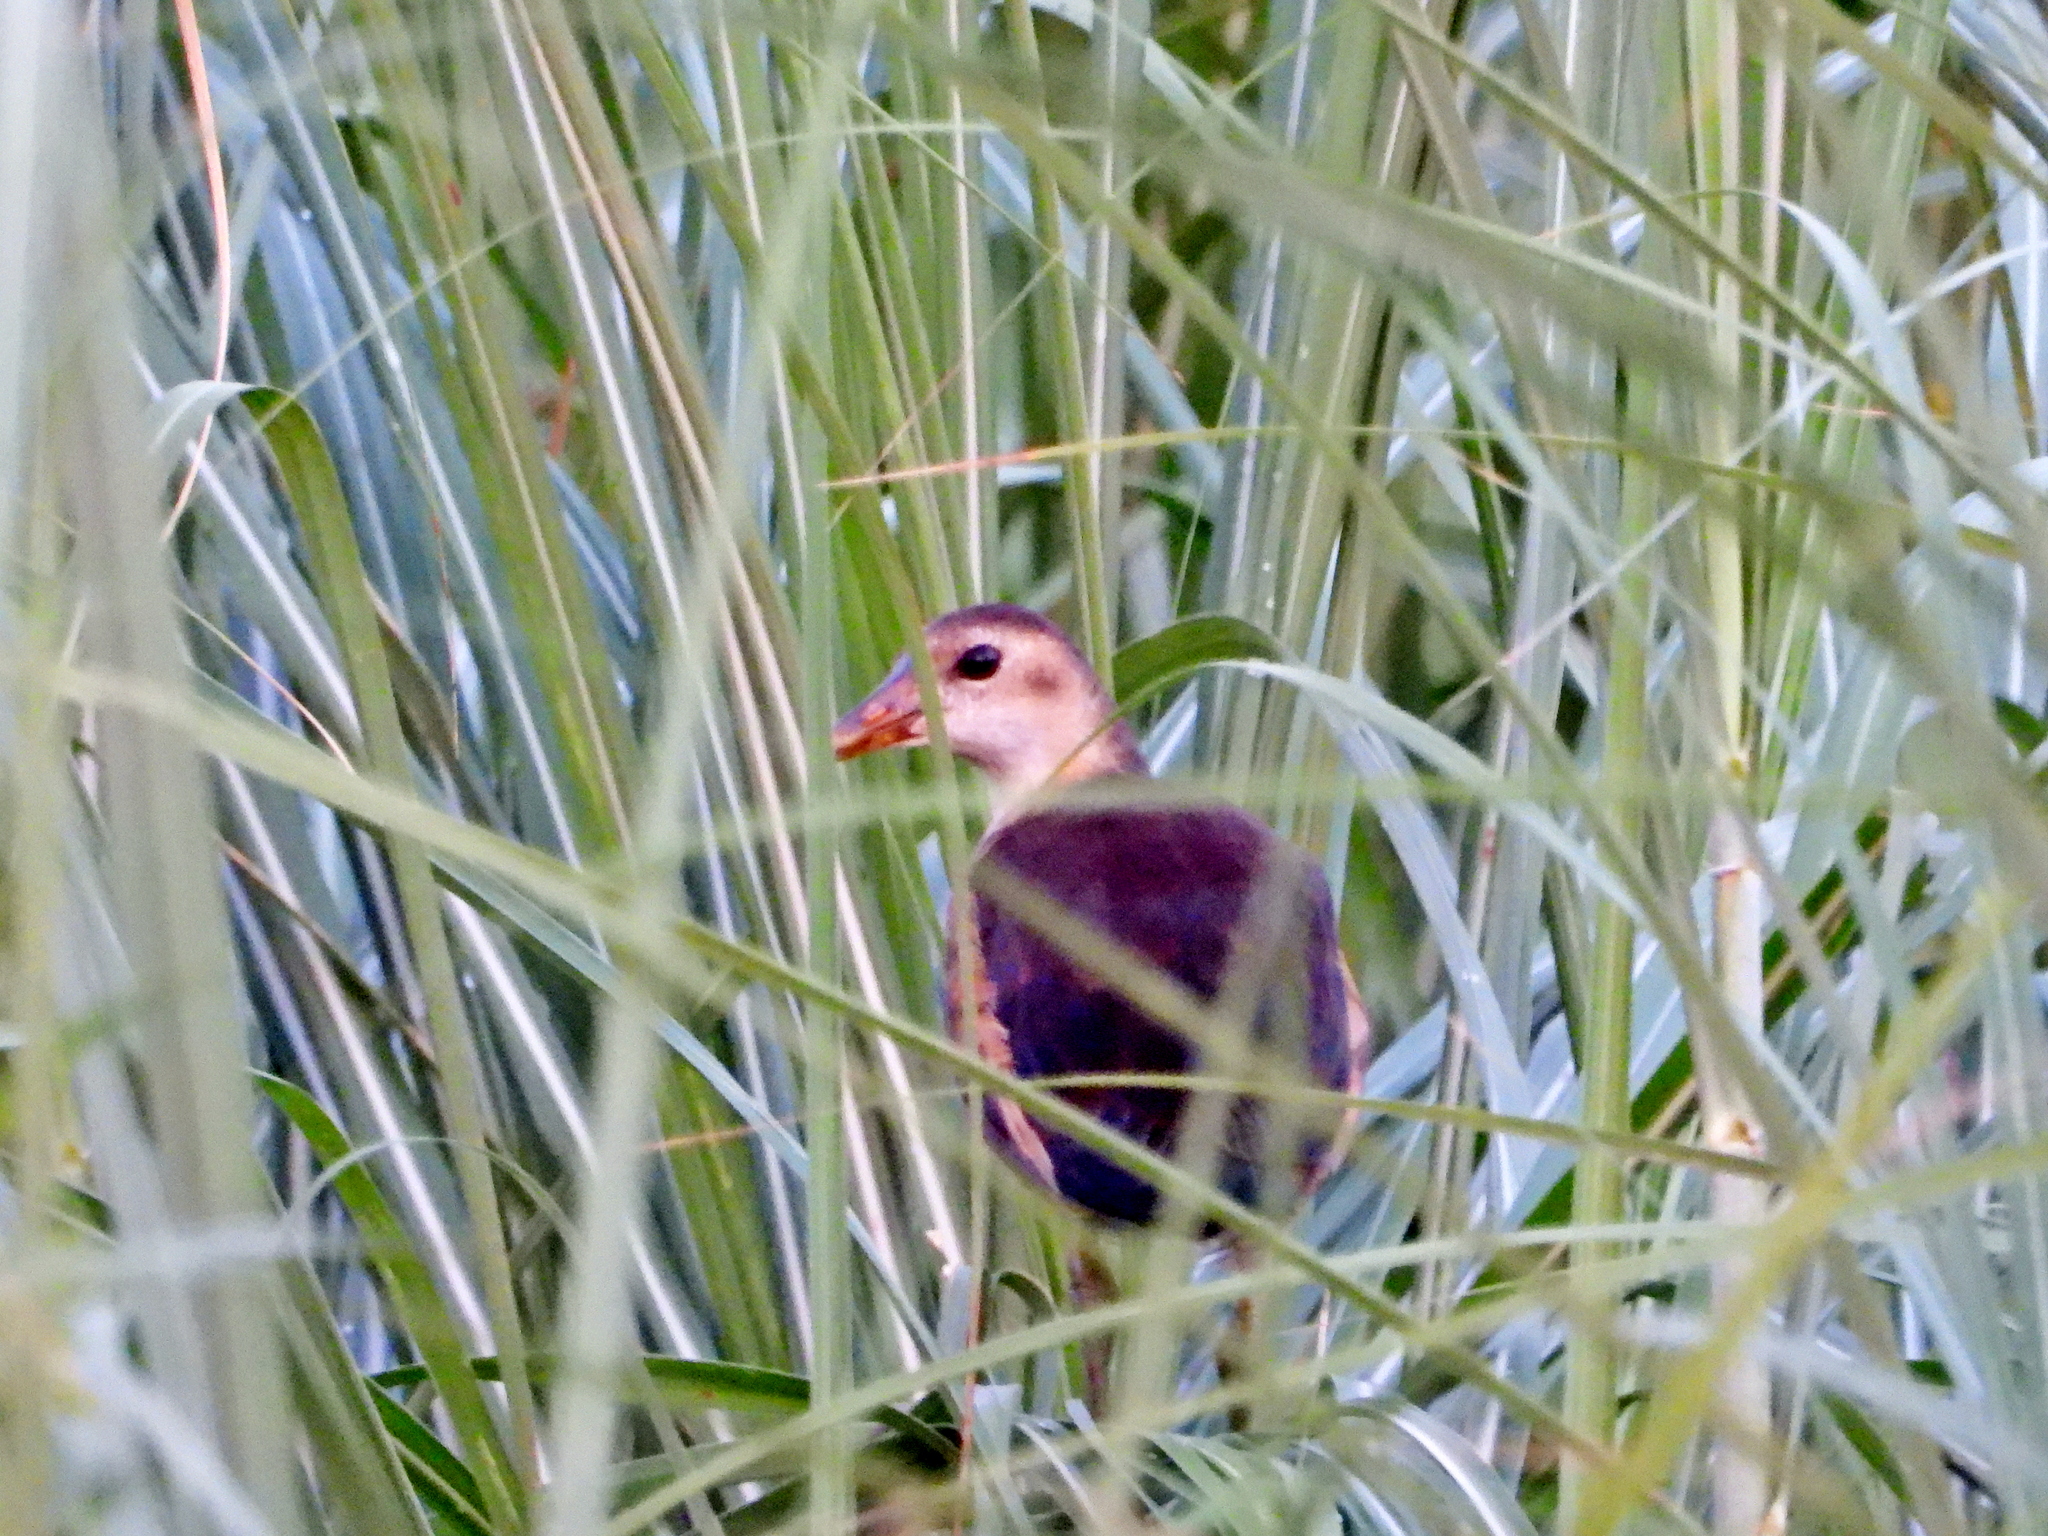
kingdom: Animalia
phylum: Chordata
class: Aves
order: Gruiformes
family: Rallidae
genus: Gallinula
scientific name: Gallinula chloropus
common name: Common moorhen
